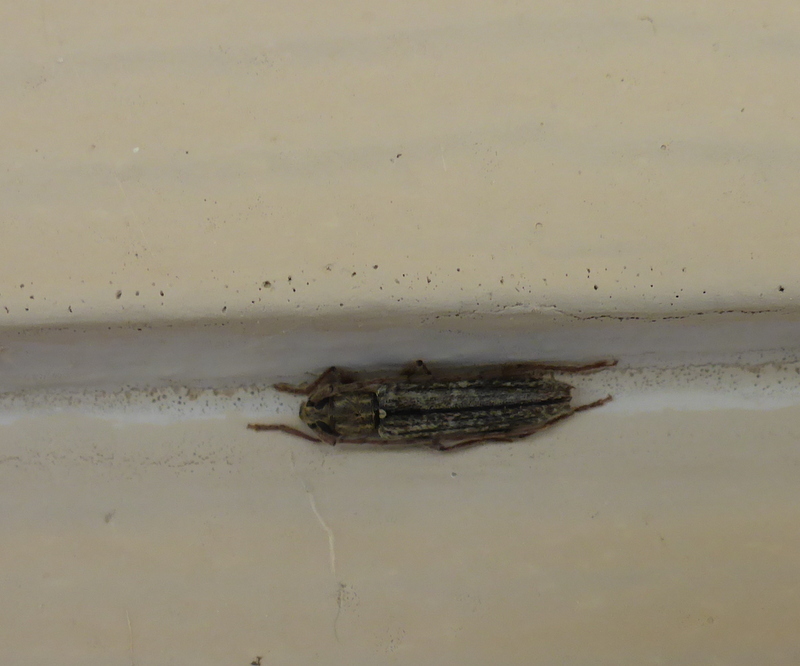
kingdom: Animalia
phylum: Arthropoda
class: Insecta
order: Coleoptera
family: Cerambycidae
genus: Anelaphus
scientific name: Anelaphus villosus
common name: Twig pruner
